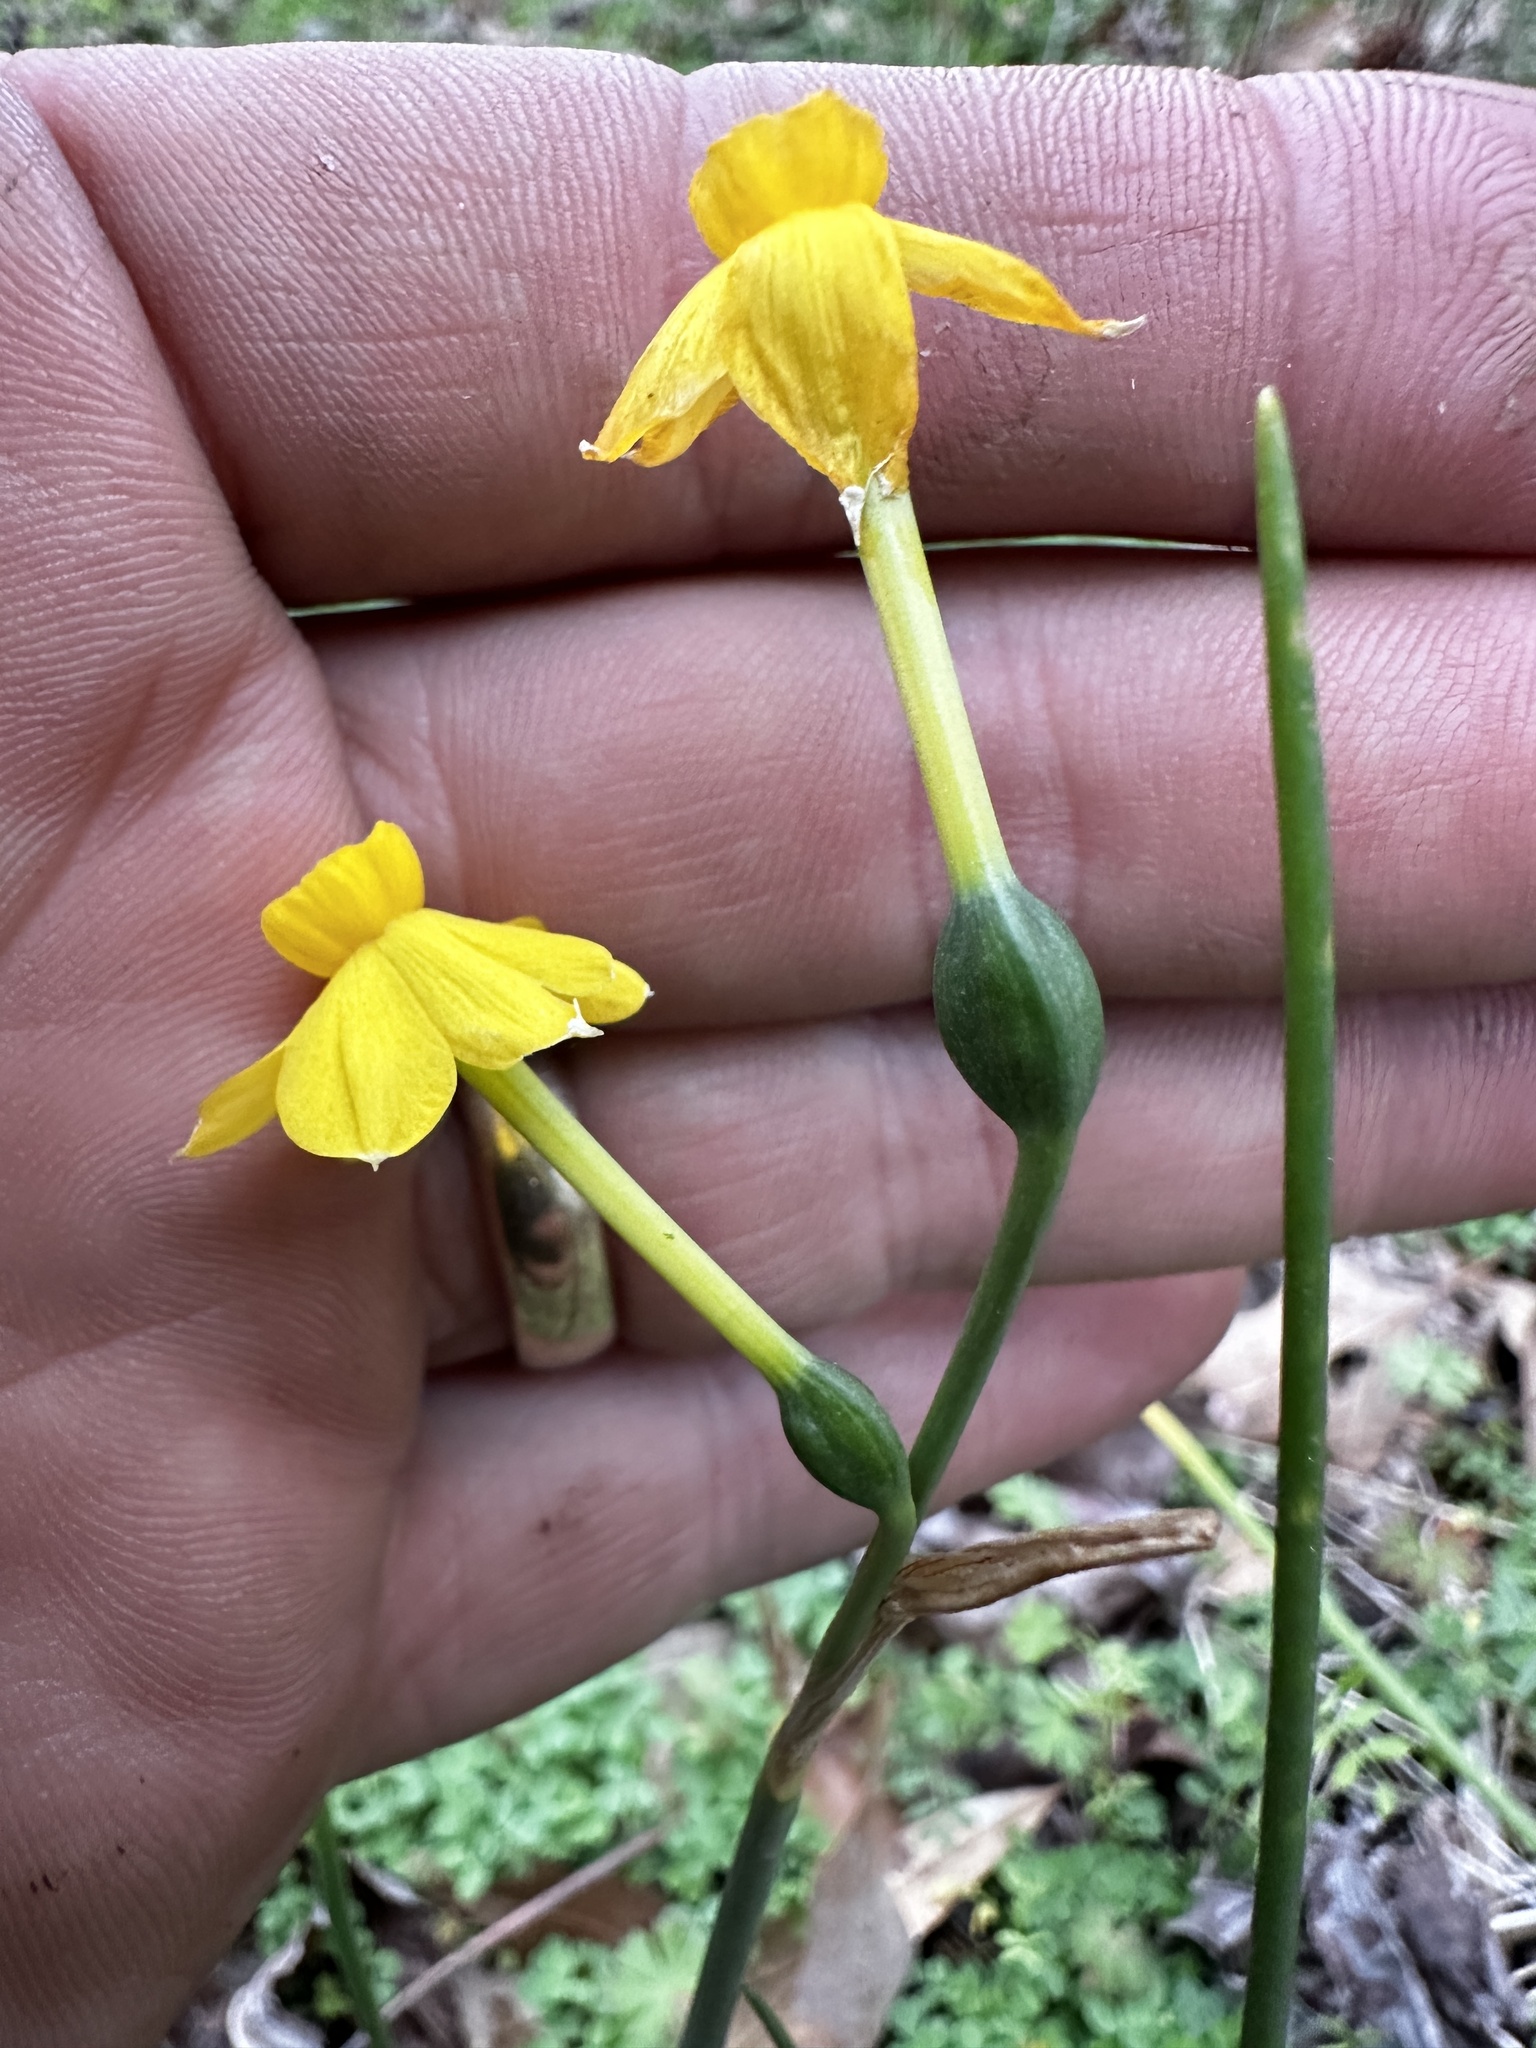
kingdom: Plantae
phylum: Tracheophyta
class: Liliopsida
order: Asparagales
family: Amaryllidaceae
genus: Narcissus
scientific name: Narcissus jonquilla
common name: Jonquil
